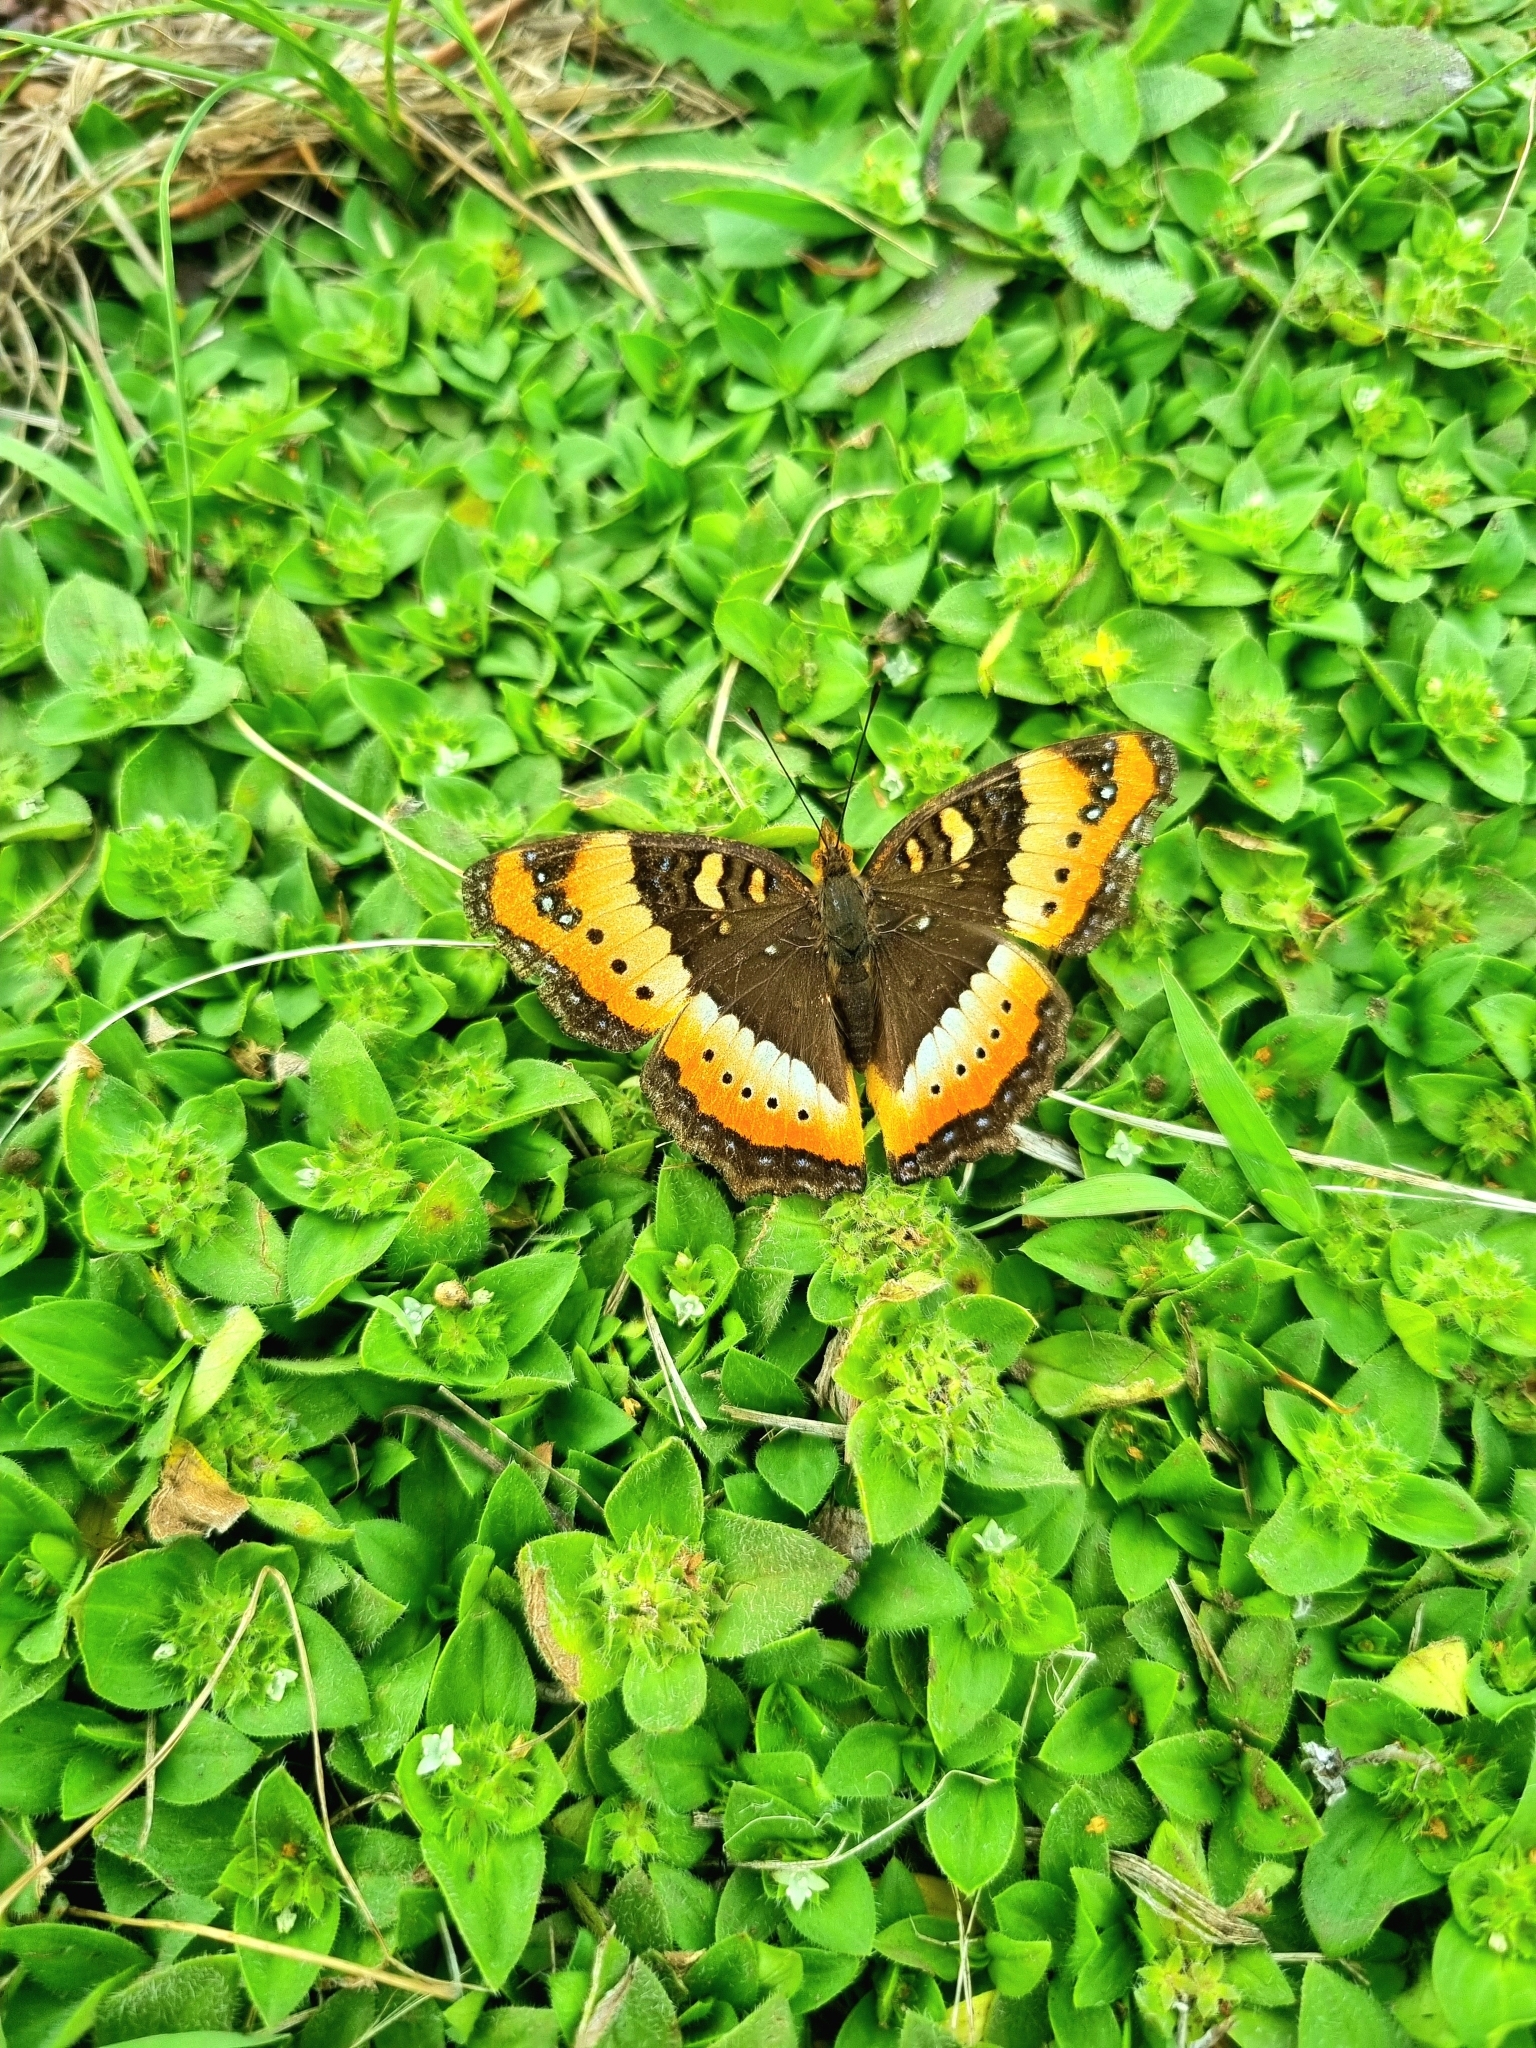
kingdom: Animalia
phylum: Arthropoda
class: Insecta
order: Lepidoptera
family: Nymphalidae
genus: Precis
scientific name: Precis ceryne
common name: Marsh commodore
